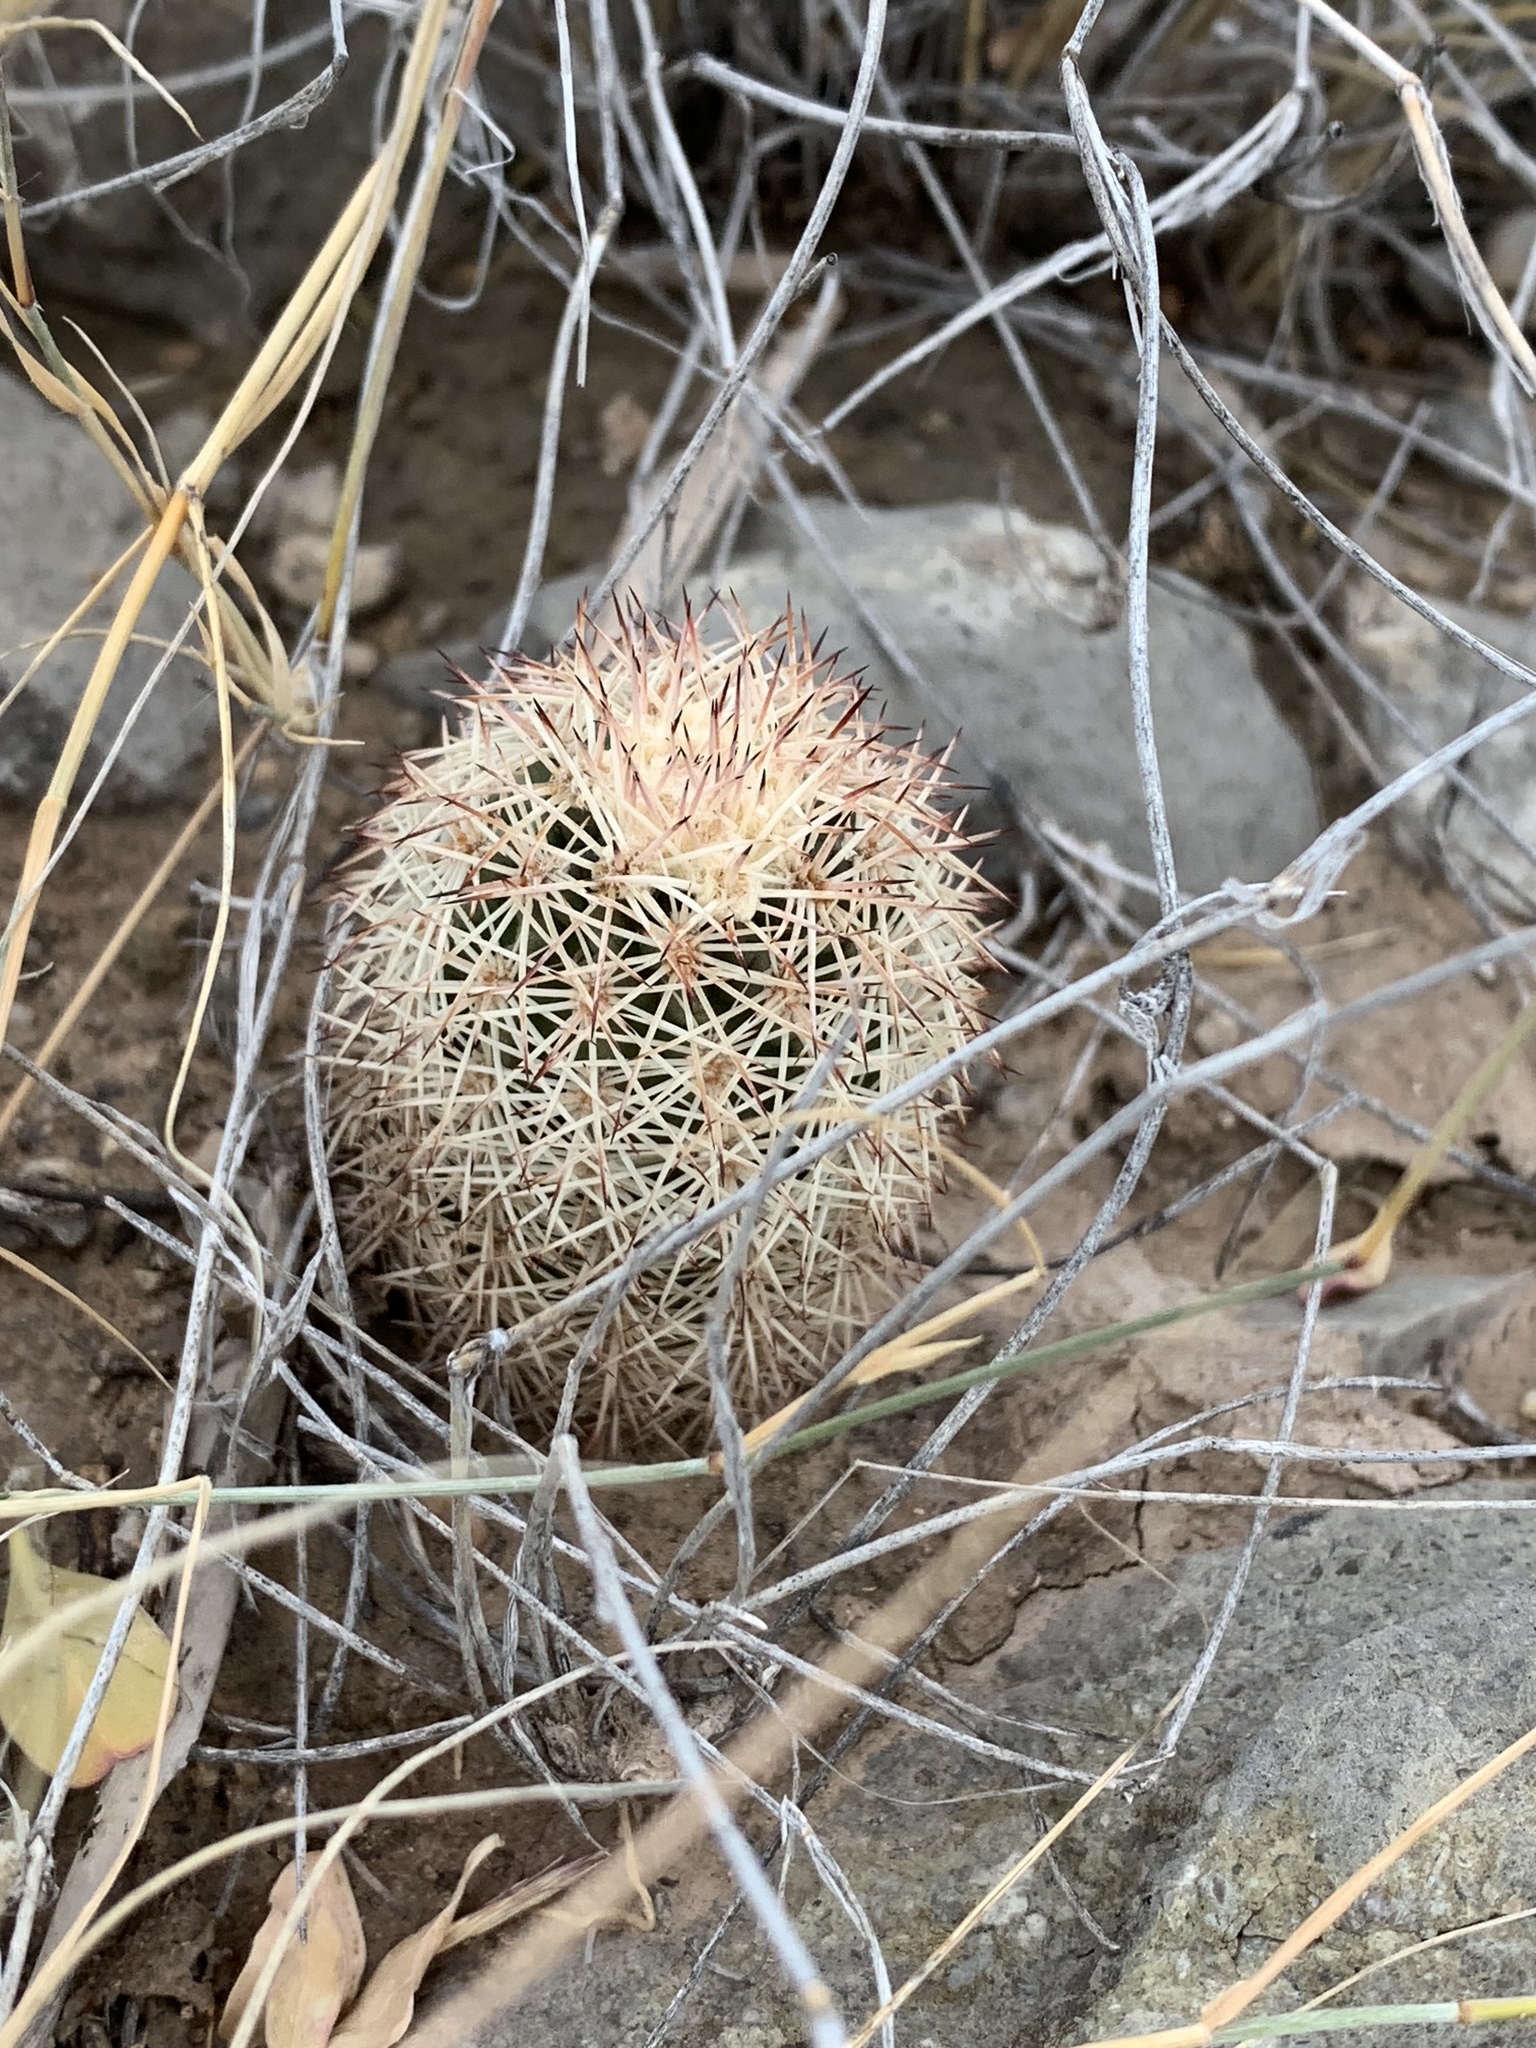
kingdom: Plantae
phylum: Tracheophyta
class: Magnoliopsida
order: Caryophyllales
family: Cactaceae
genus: Echinocereus
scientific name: Echinocereus dasyacanthus
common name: Spiny hedgehog cactus
